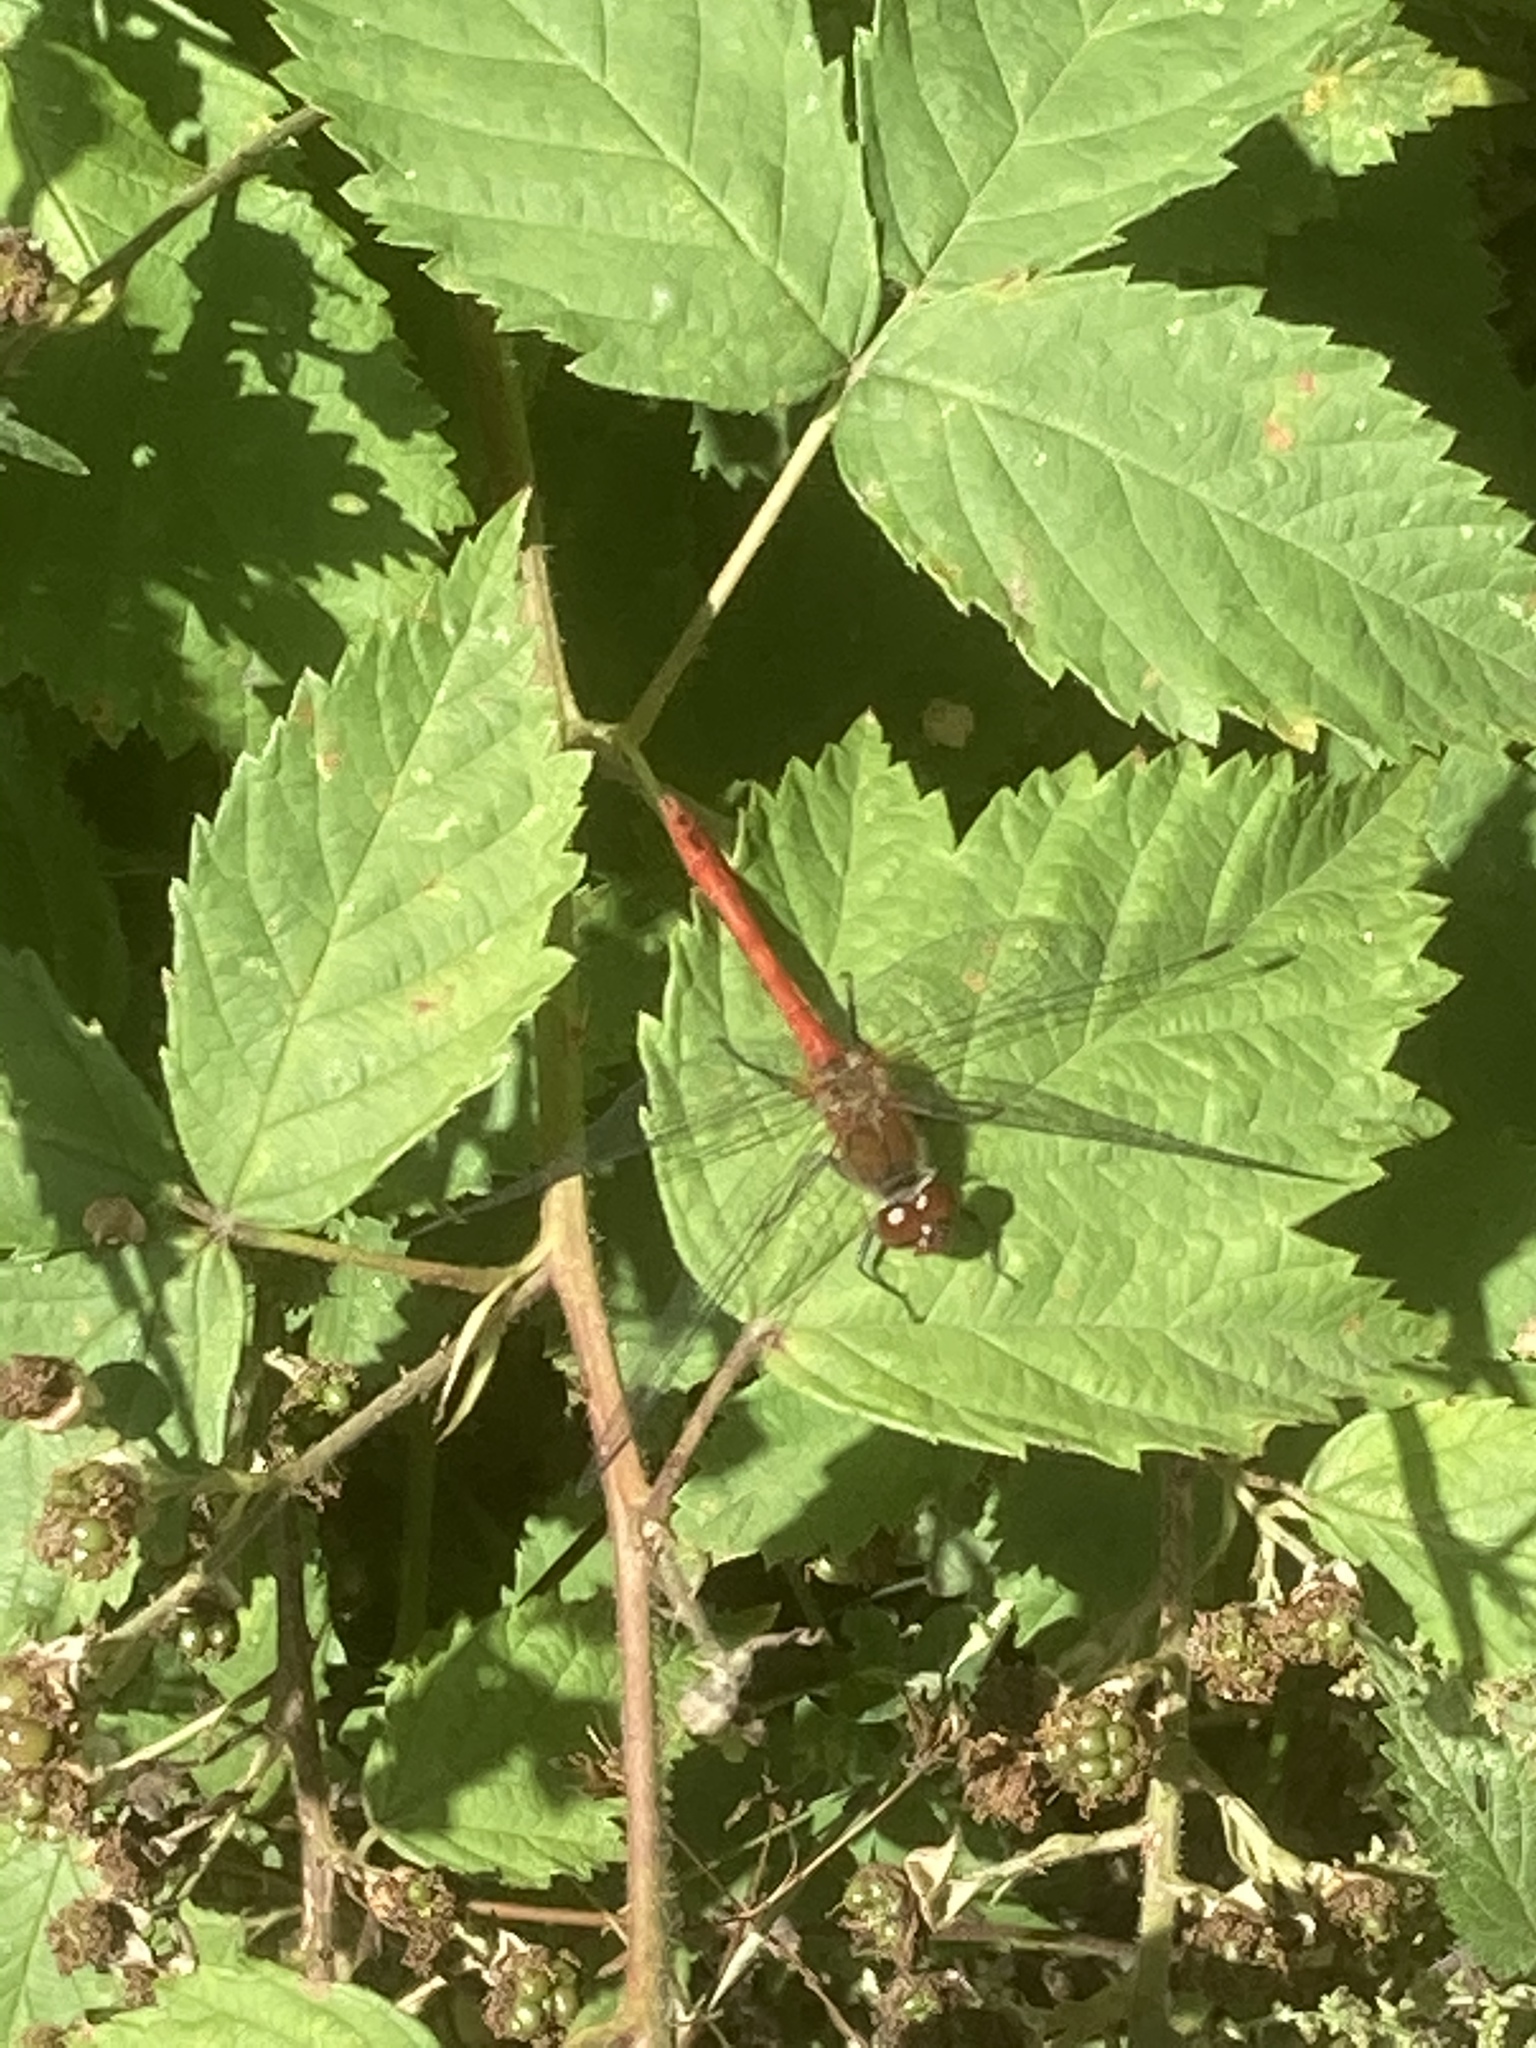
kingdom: Animalia
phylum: Arthropoda
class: Insecta
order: Odonata
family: Libellulidae
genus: Sympetrum
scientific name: Sympetrum sanguineum
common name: Ruddy darter
